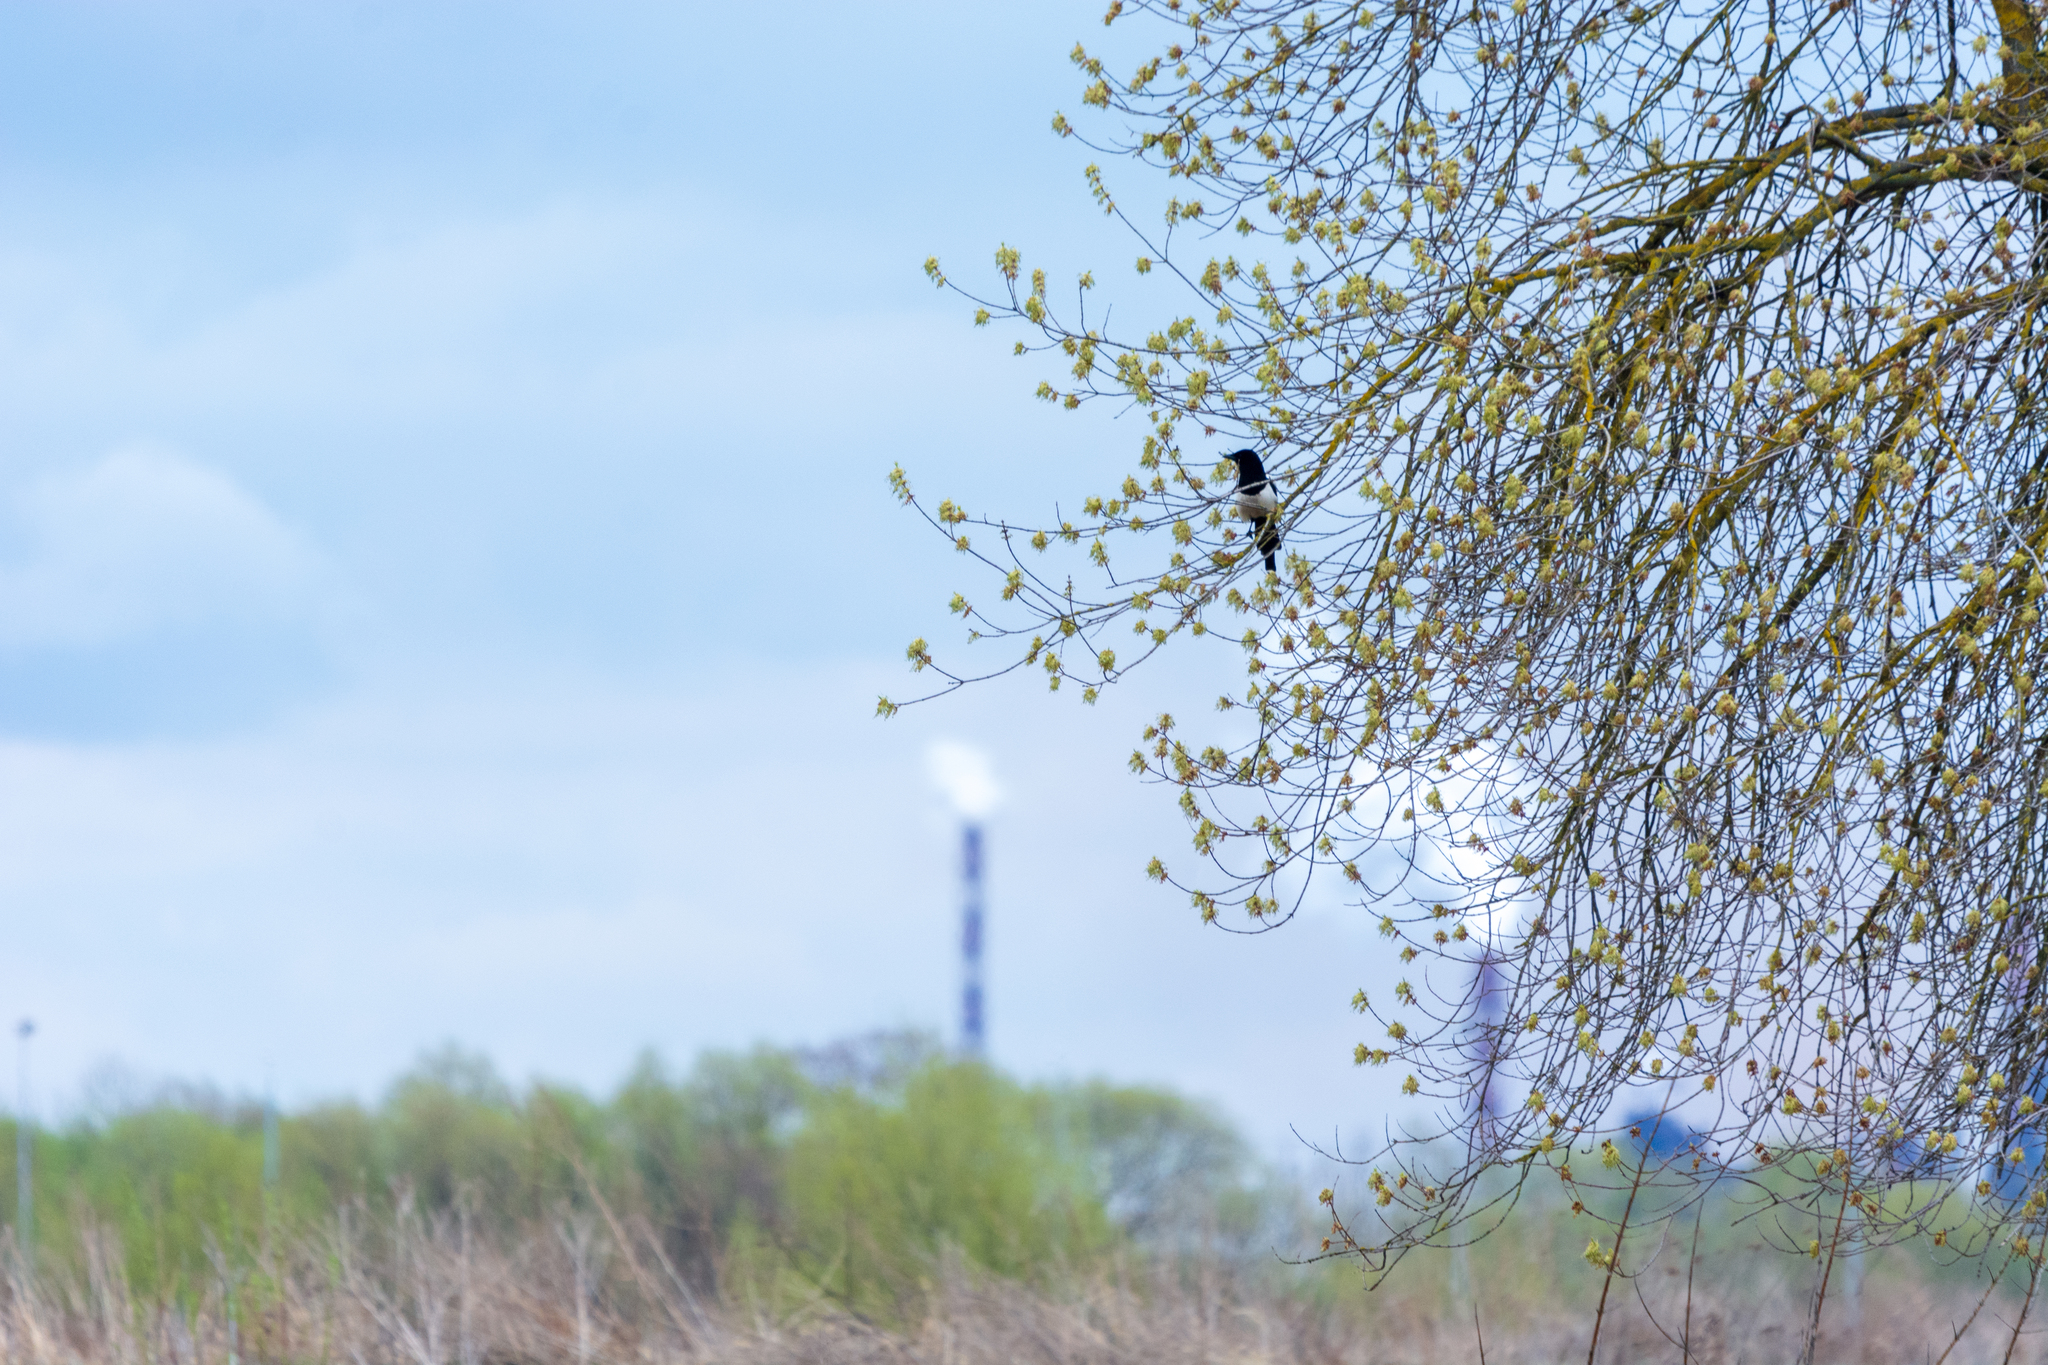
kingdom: Animalia
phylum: Chordata
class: Aves
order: Passeriformes
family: Corvidae
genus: Pica
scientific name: Pica pica
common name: Eurasian magpie
